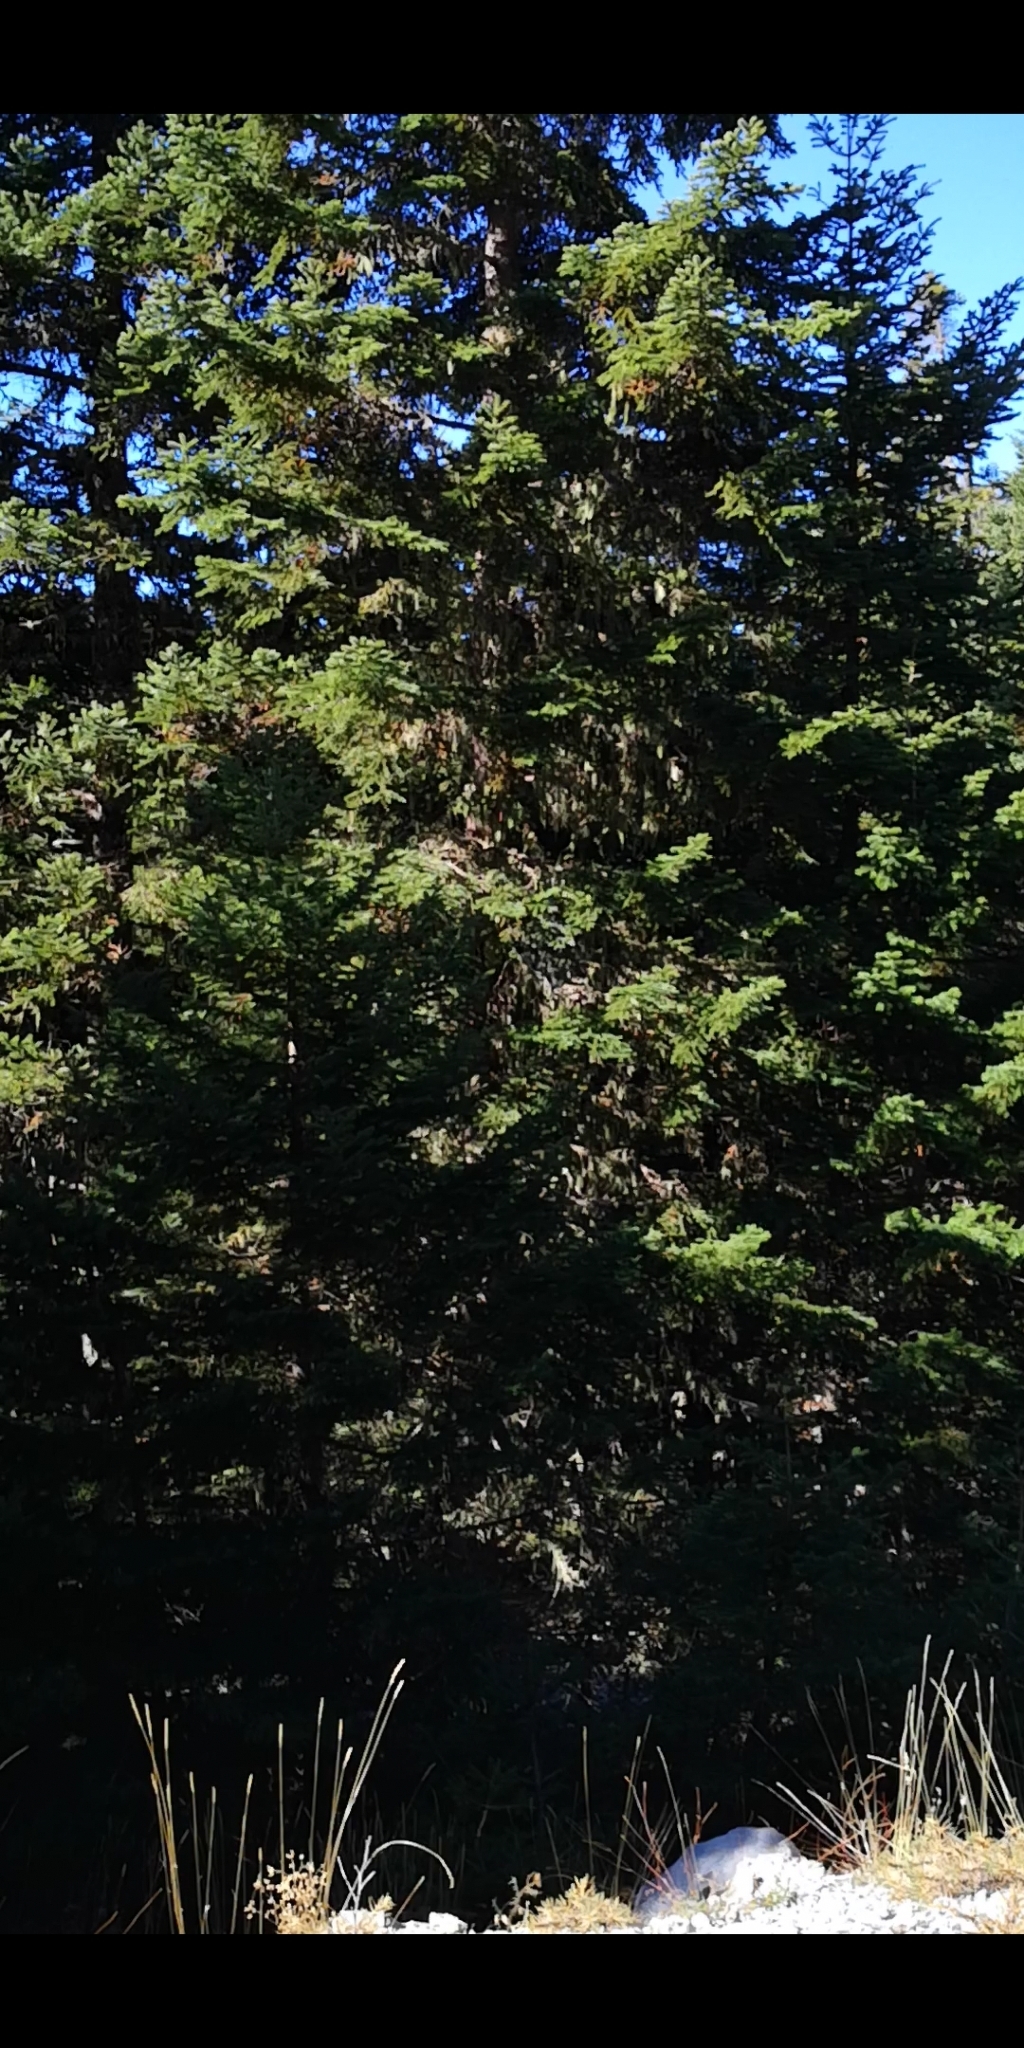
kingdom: Animalia
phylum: Chordata
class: Mammalia
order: Rodentia
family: Sciuridae
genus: Sciurus
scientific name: Sciurus vulgaris
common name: Eurasian red squirrel
